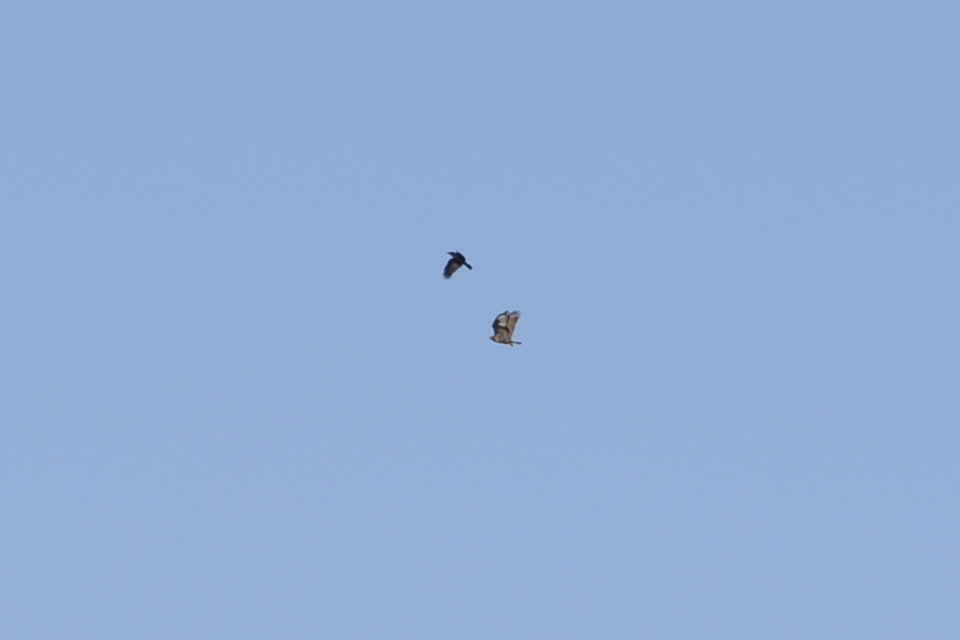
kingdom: Animalia
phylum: Chordata
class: Aves
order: Accipitriformes
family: Accipitridae
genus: Buteo
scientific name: Buteo buteo
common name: Common buzzard
